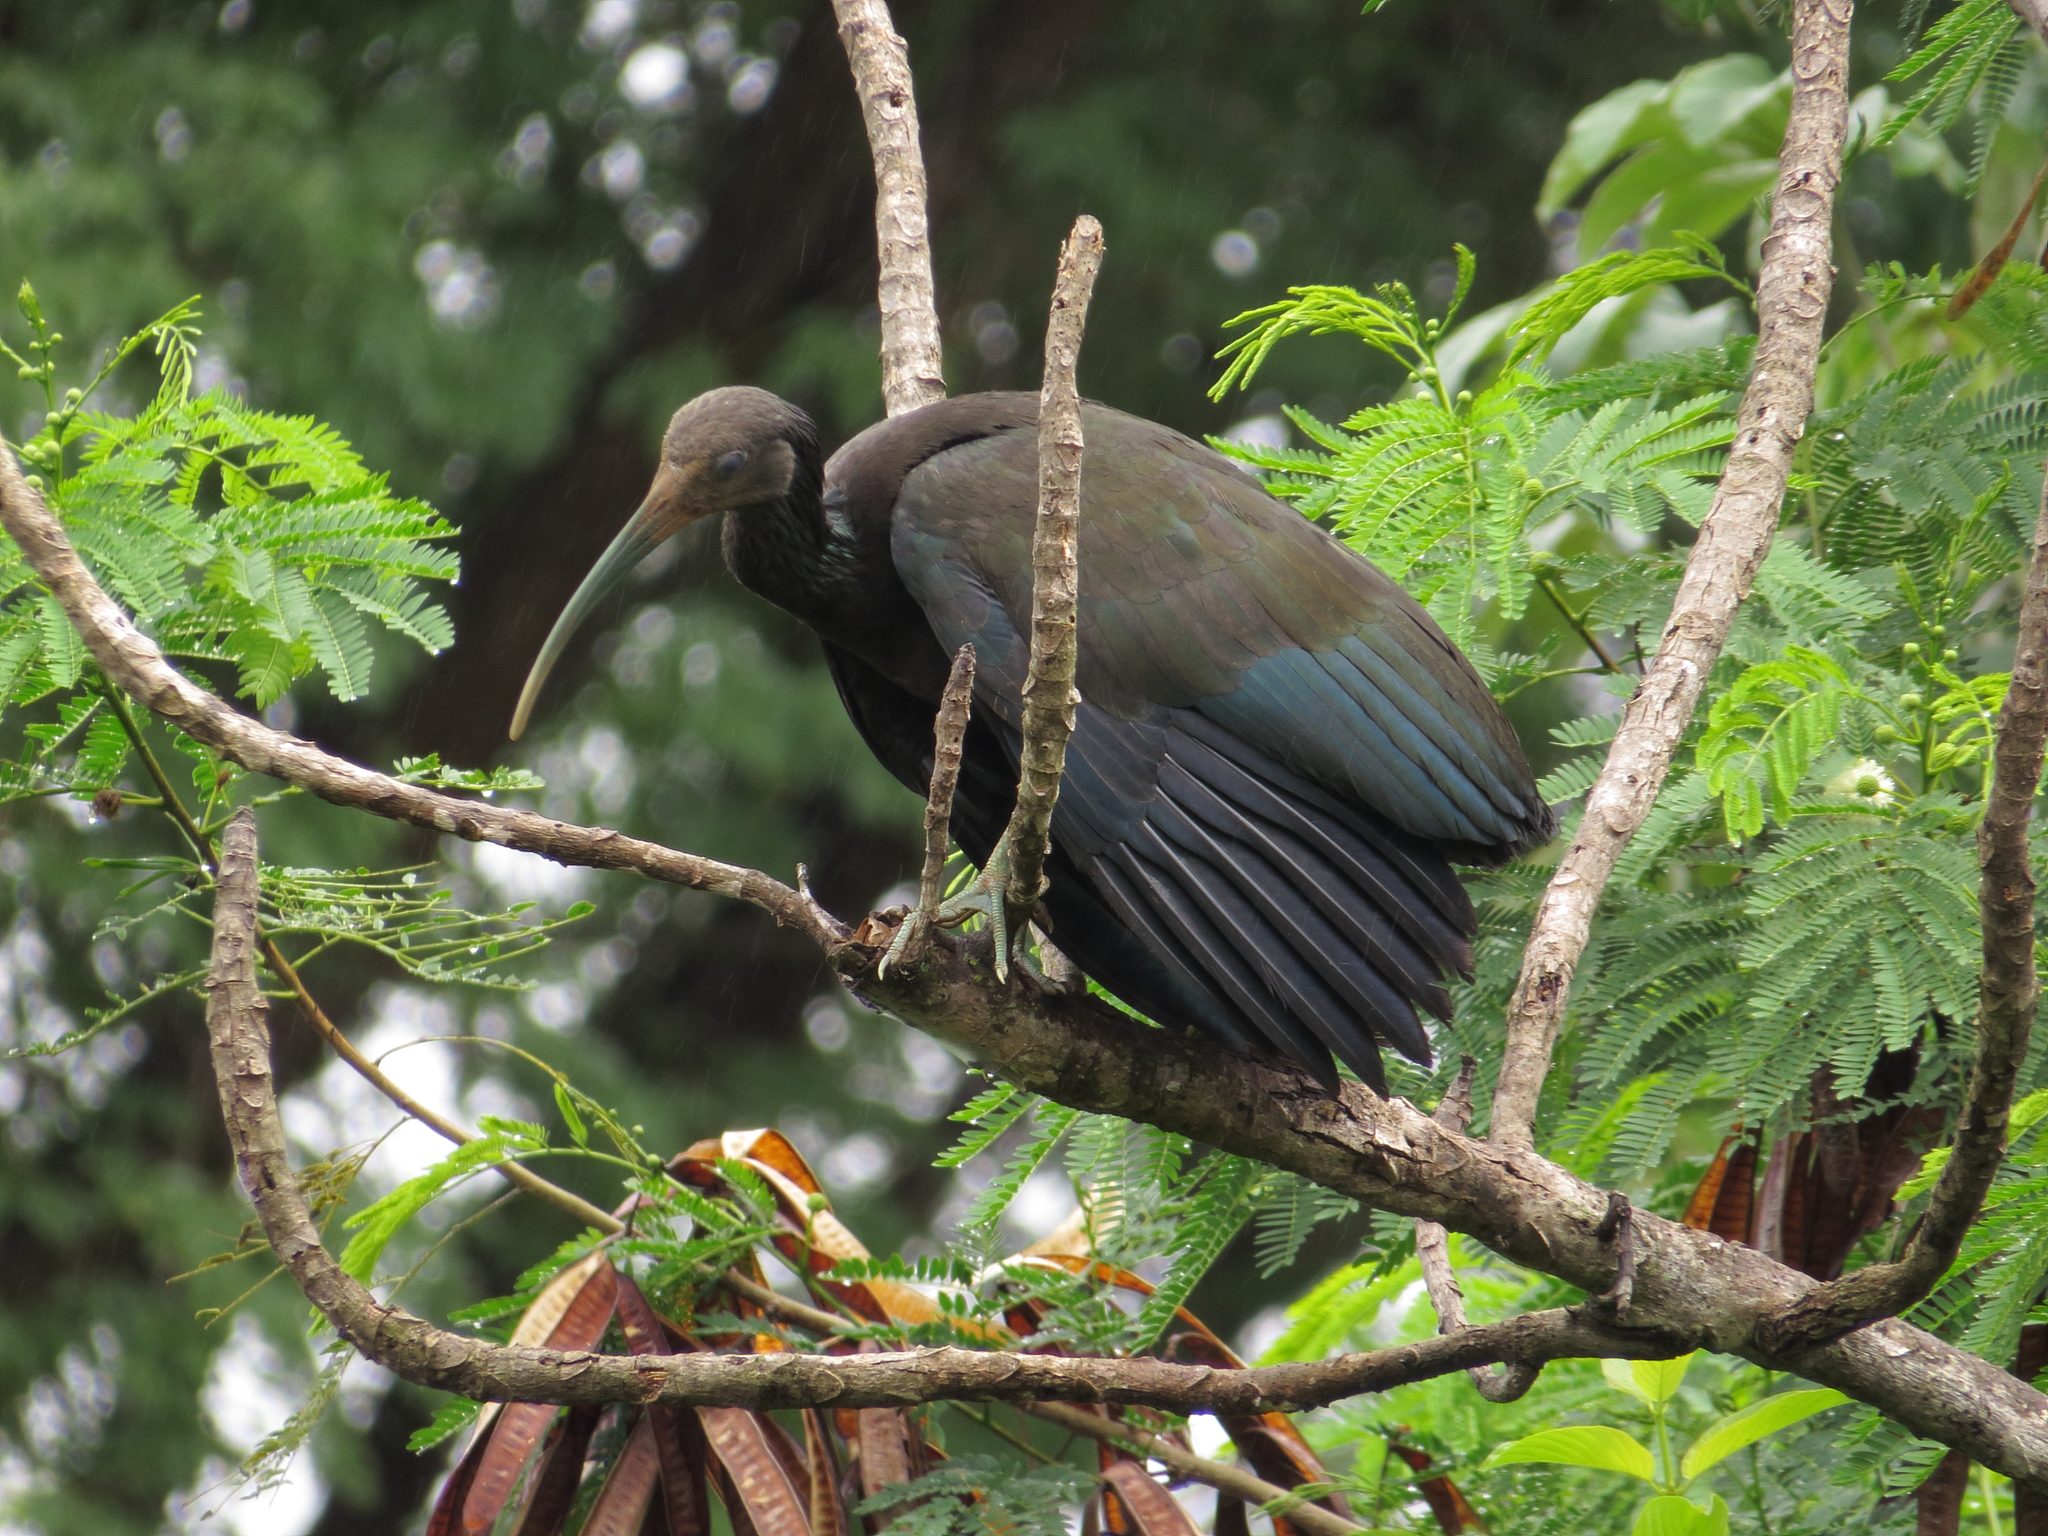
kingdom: Animalia
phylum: Chordata
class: Aves
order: Pelecaniformes
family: Threskiornithidae
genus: Mesembrinibis
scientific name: Mesembrinibis cayennensis
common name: Green ibis
